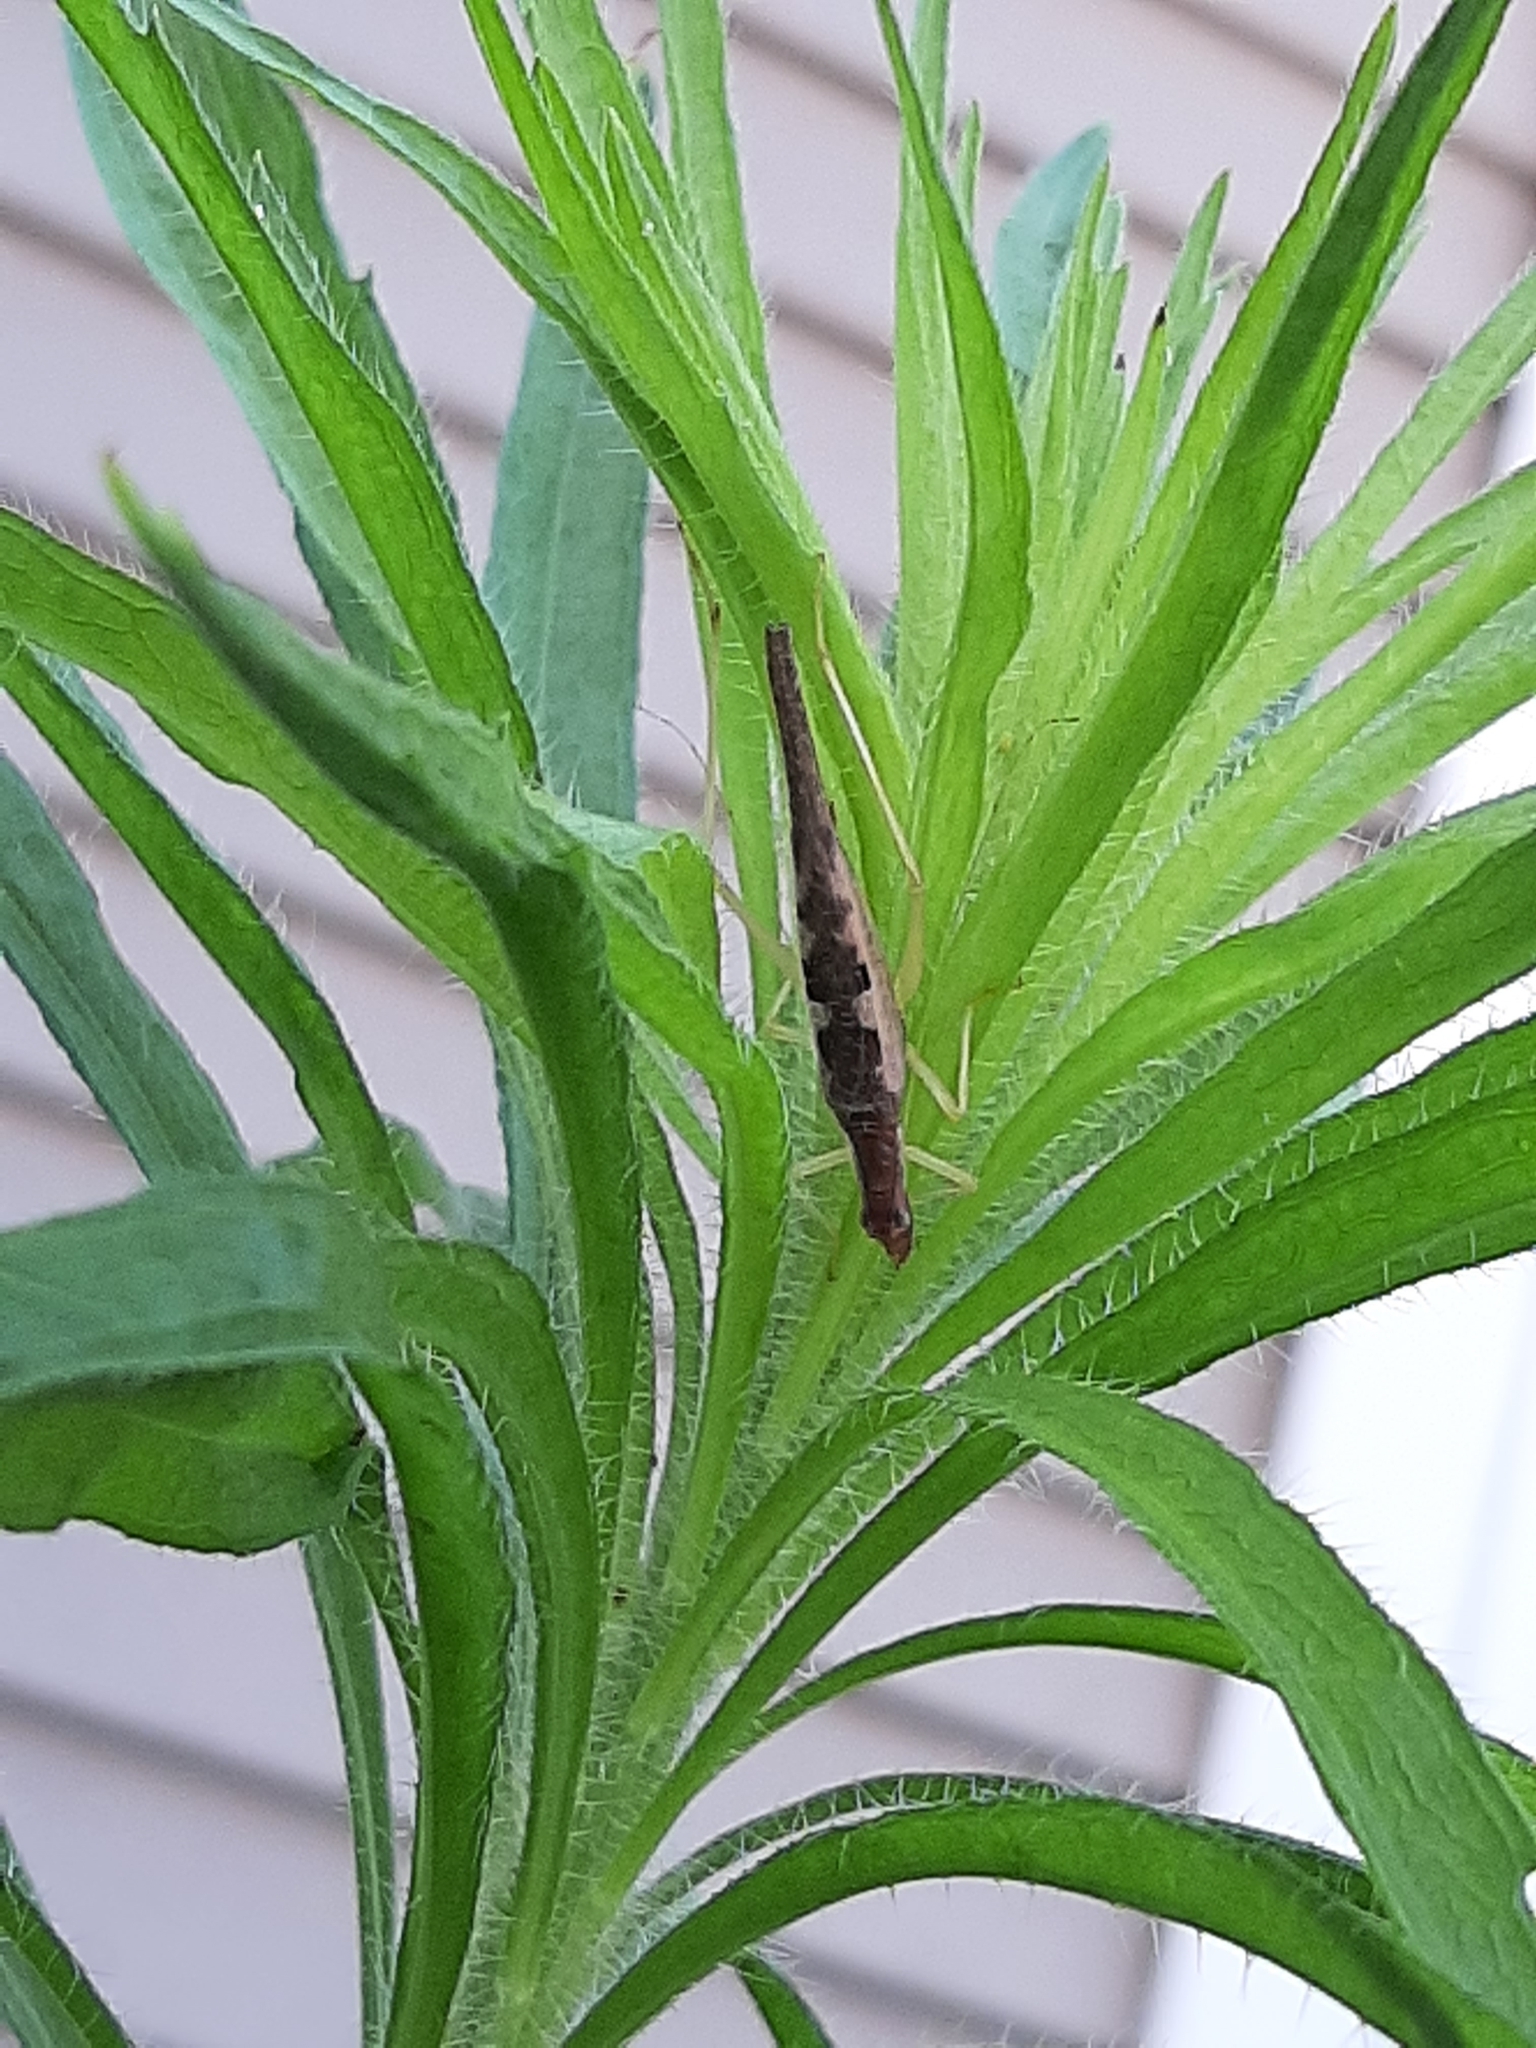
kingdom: Animalia
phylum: Arthropoda
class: Insecta
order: Orthoptera
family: Gryllidae
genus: Neoxabea
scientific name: Neoxabea bipunctata
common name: Two-spotted tree cricket
